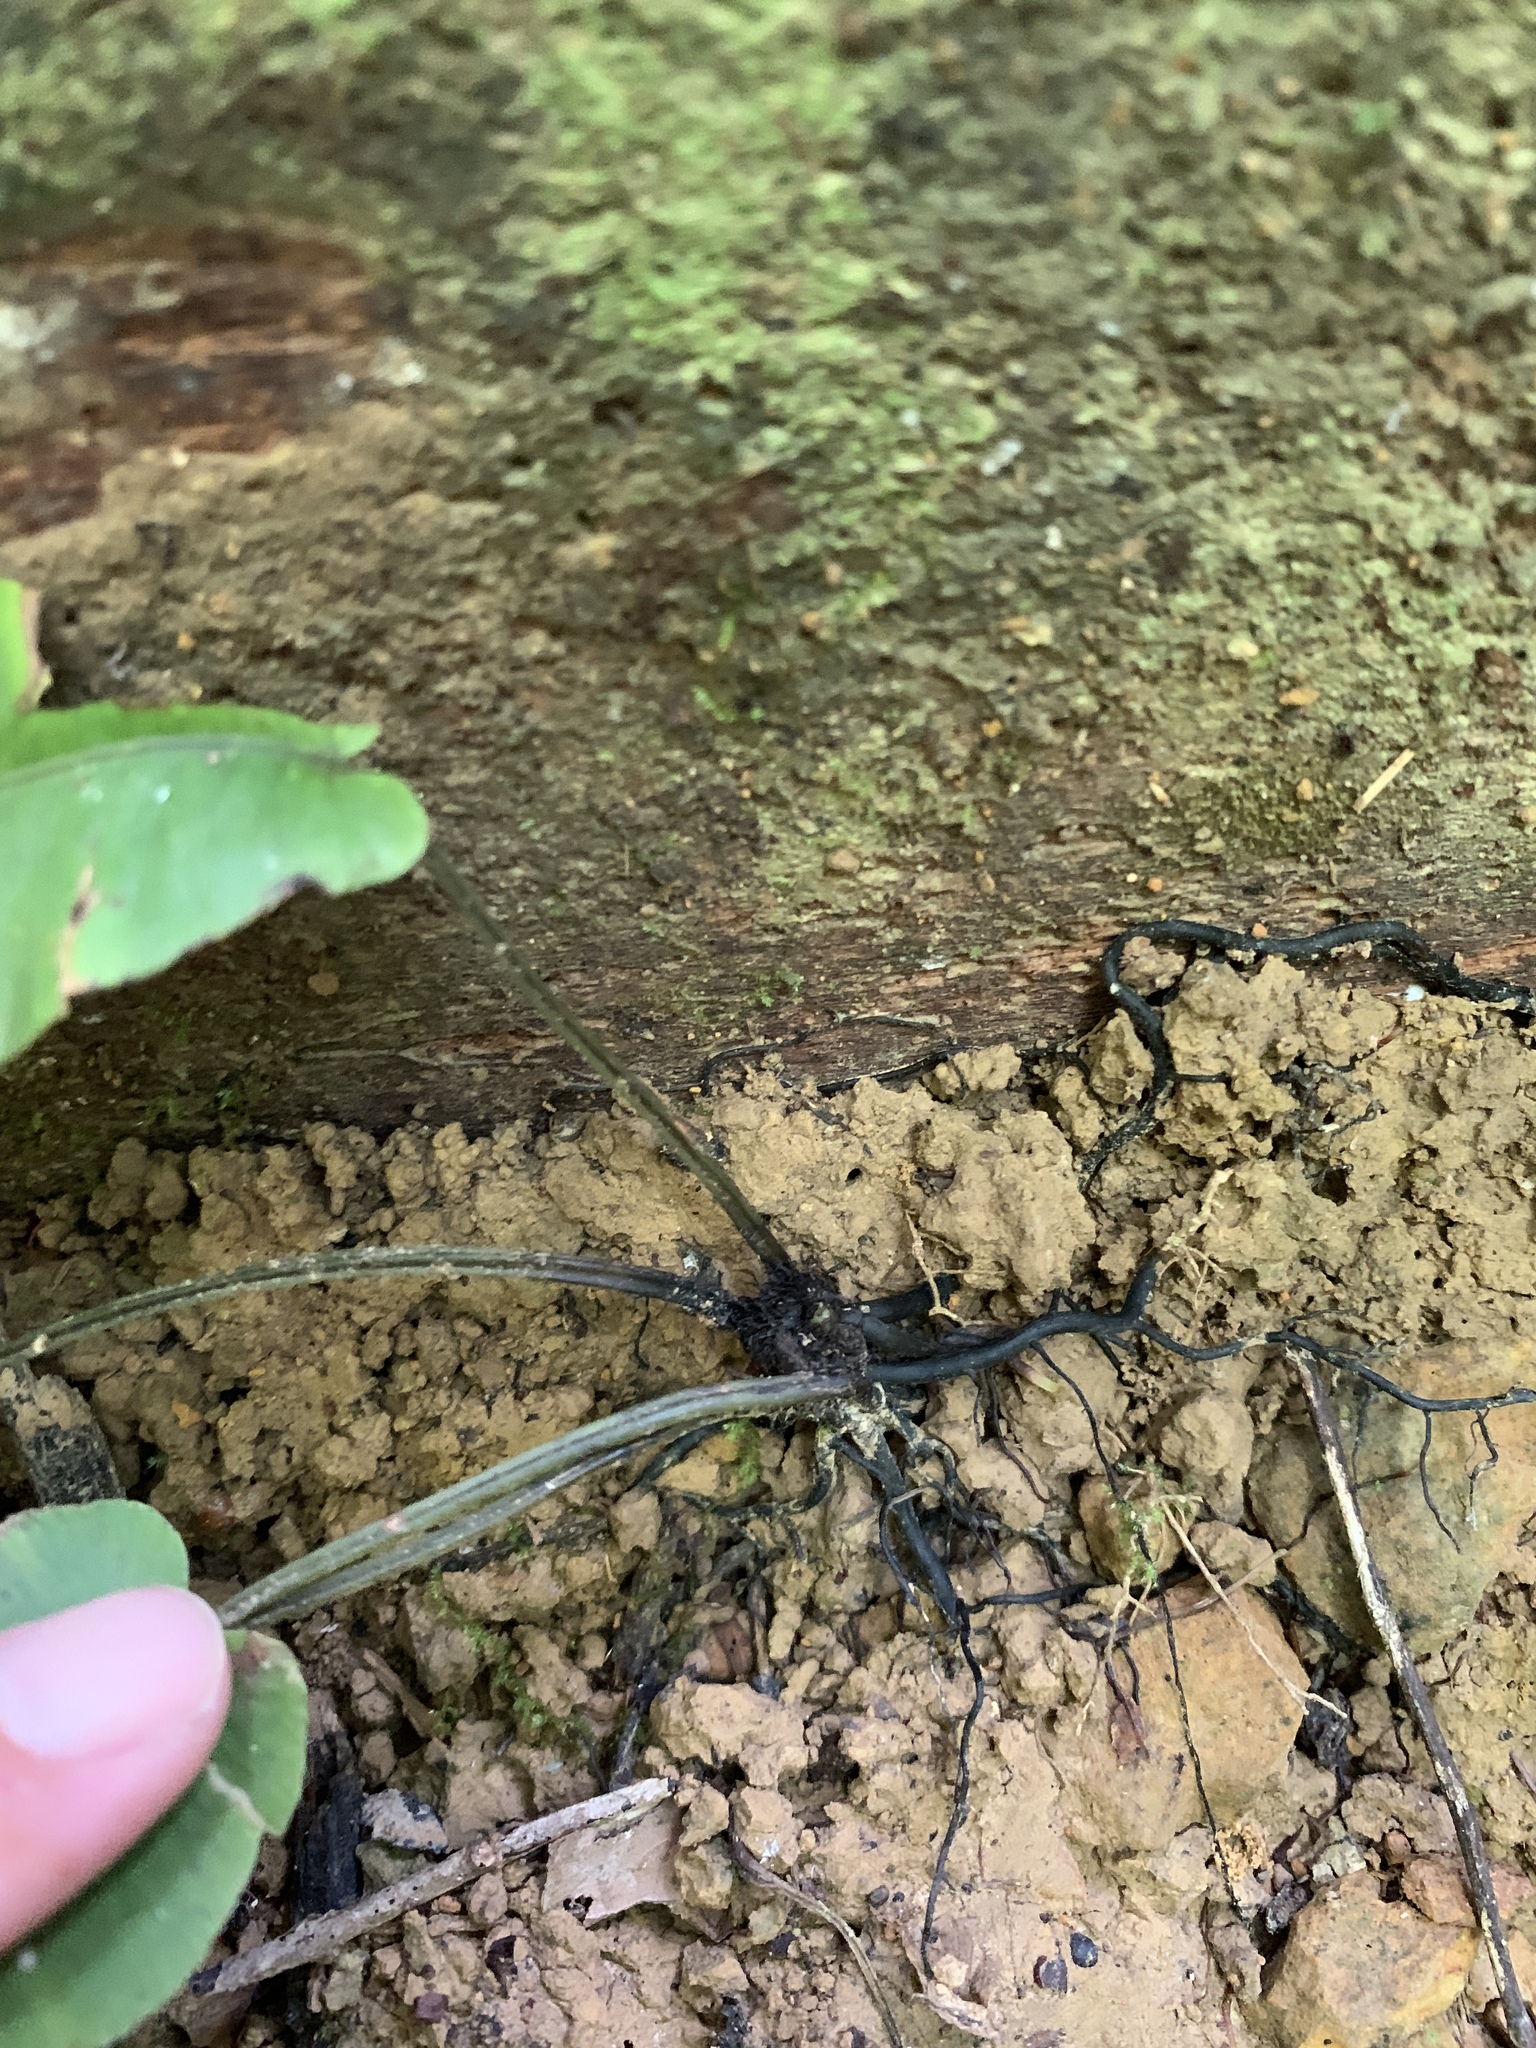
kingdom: Plantae
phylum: Tracheophyta
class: Polypodiopsida
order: Polypodiales
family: Athyriaceae
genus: Diplazium
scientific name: Diplazium cordifolium
